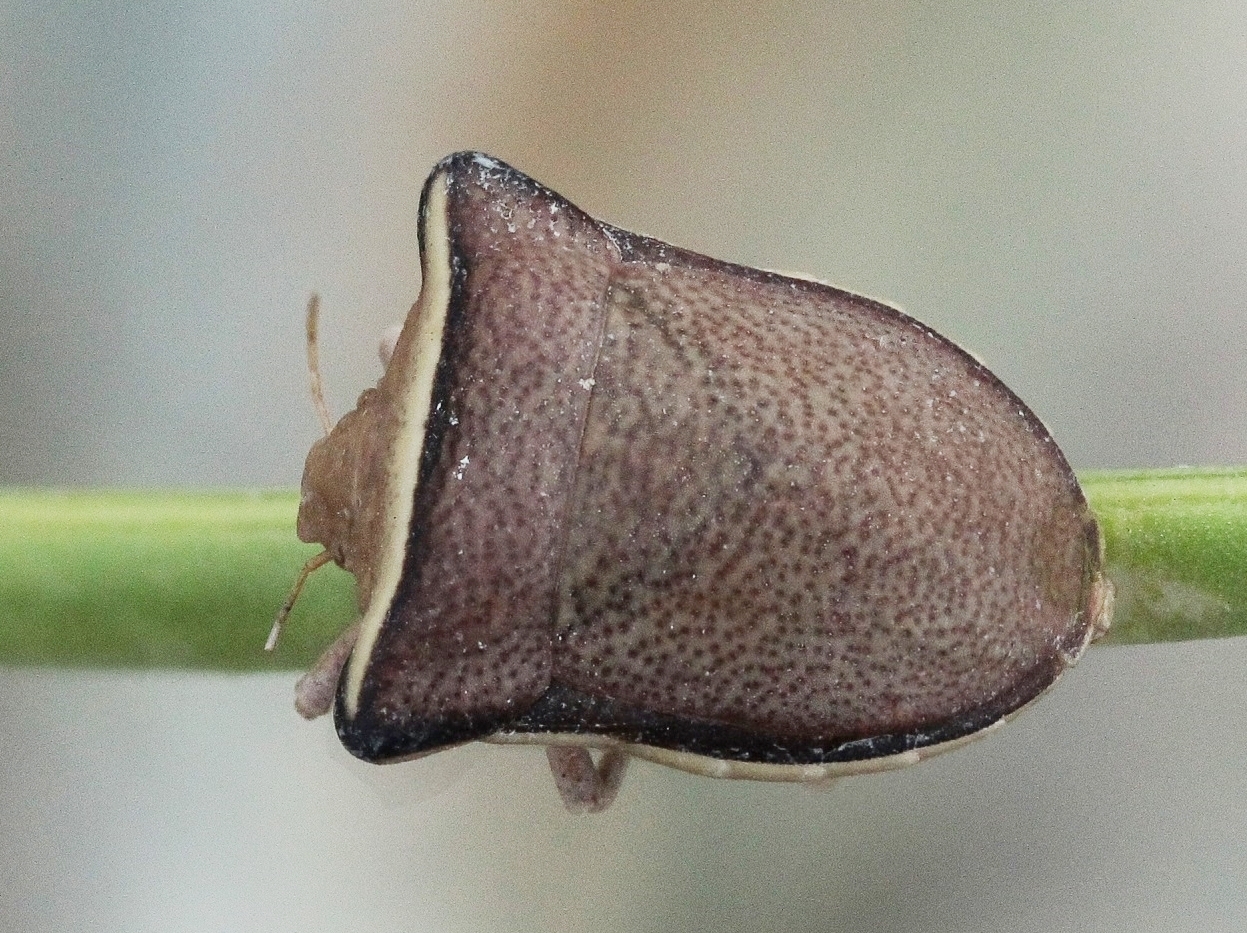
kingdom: Animalia
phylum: Arthropoda
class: Insecta
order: Hemiptera
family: Pentatomidae
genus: Ventocoris
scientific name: Ventocoris fischeri
